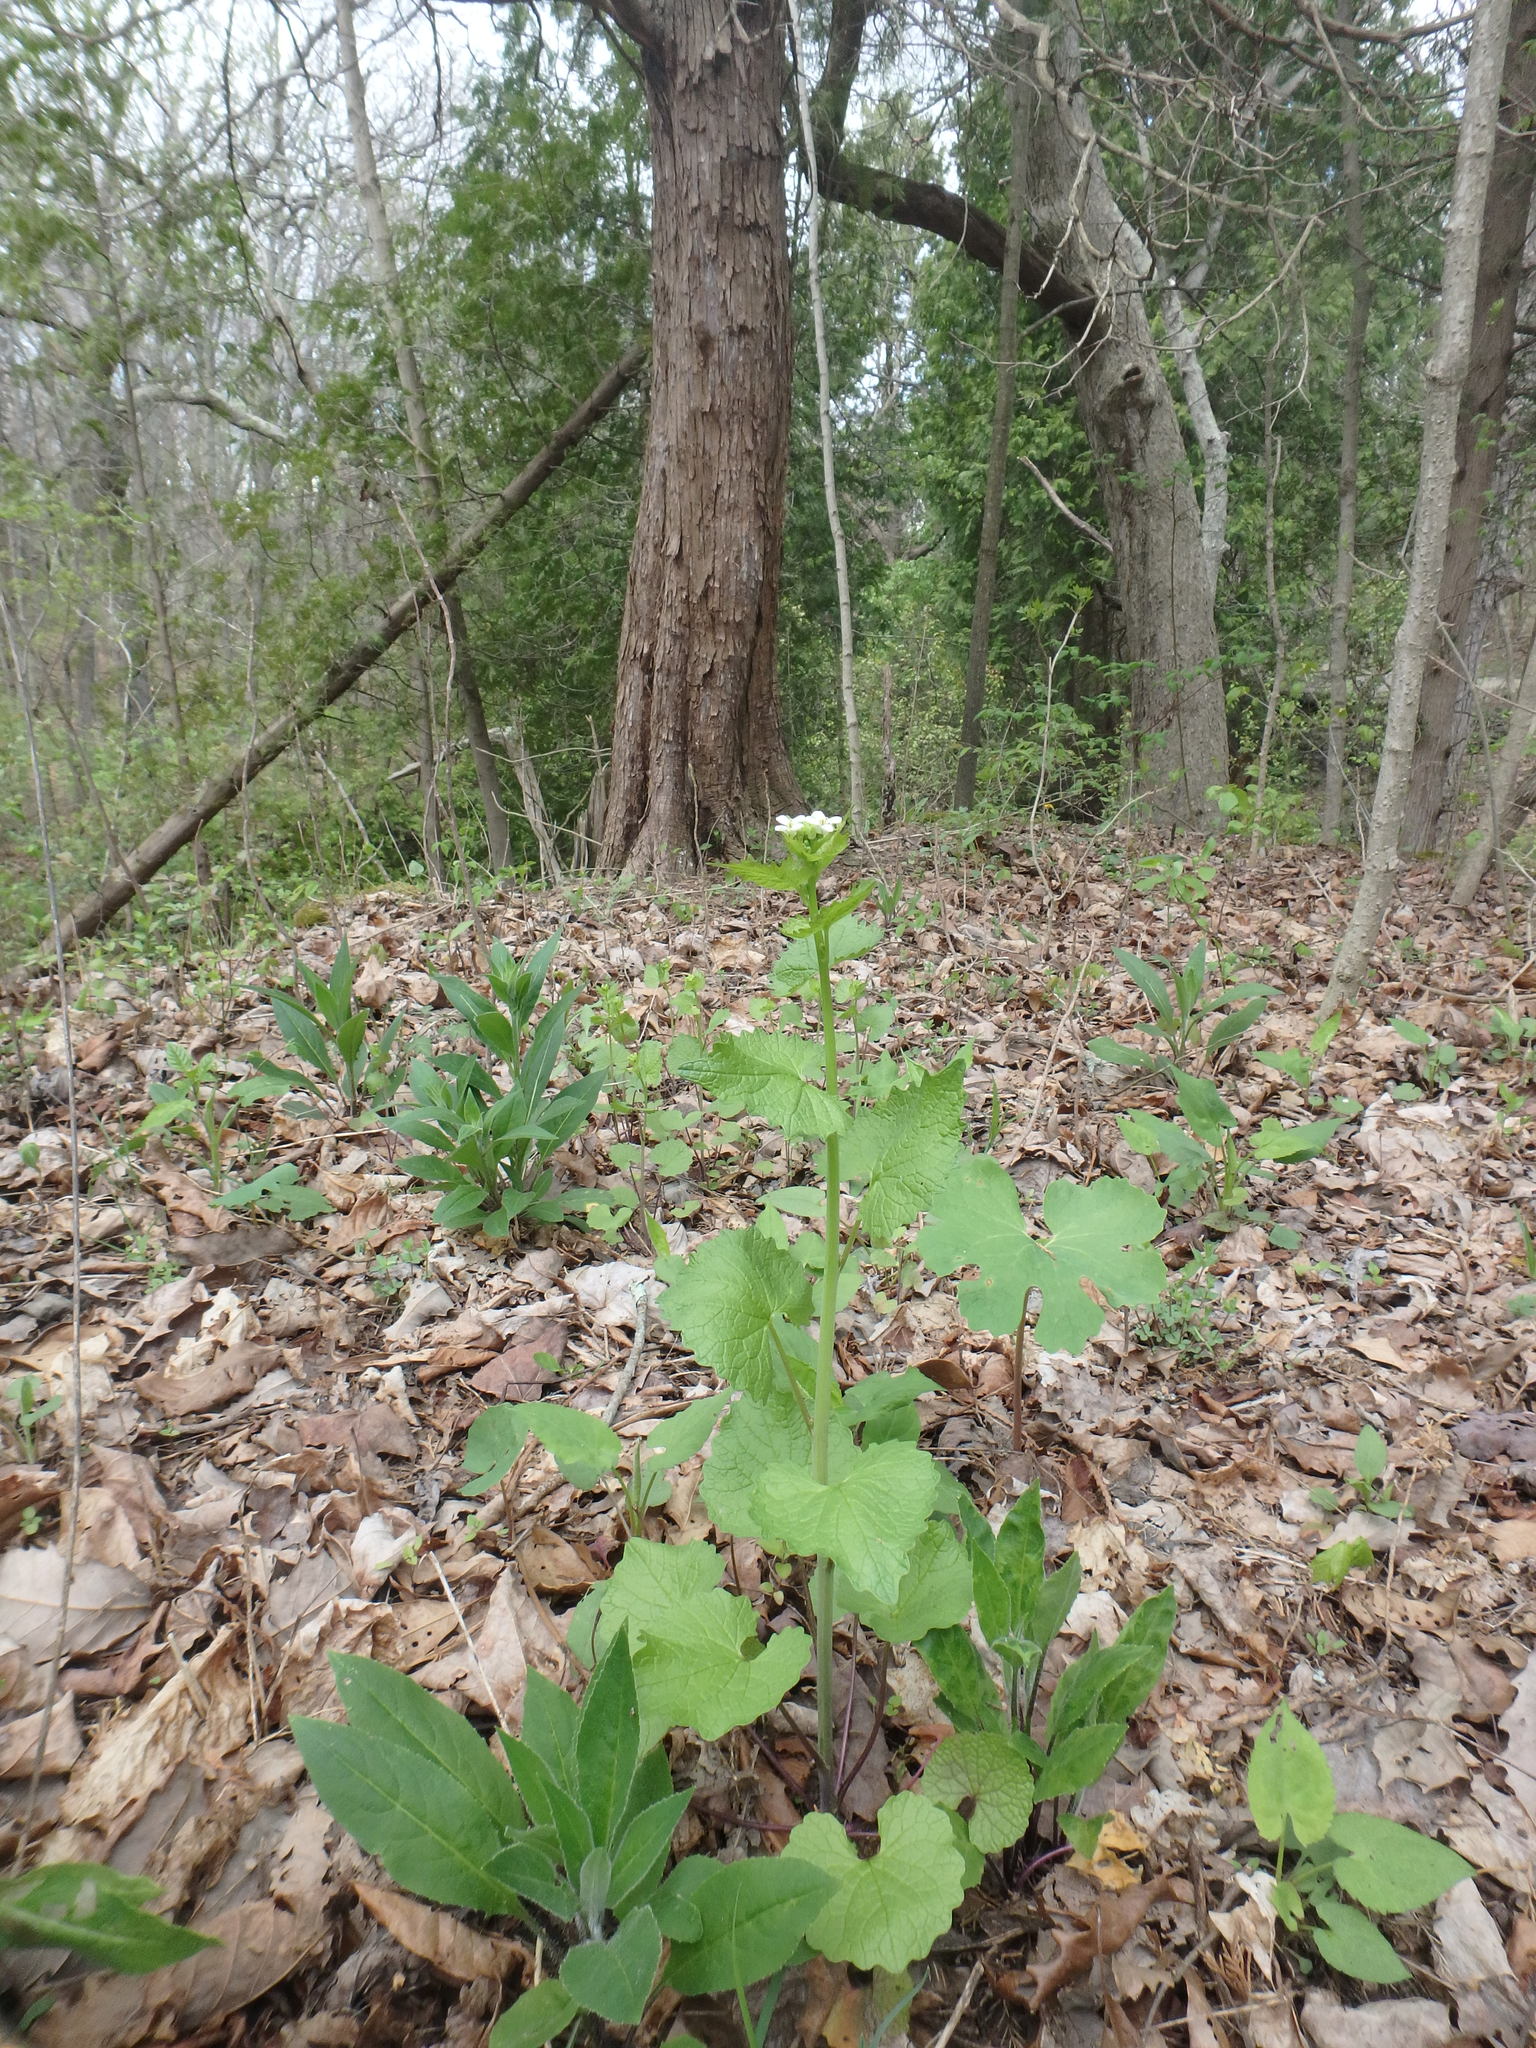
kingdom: Plantae
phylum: Tracheophyta
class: Magnoliopsida
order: Brassicales
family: Brassicaceae
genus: Alliaria
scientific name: Alliaria petiolata
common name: Garlic mustard
